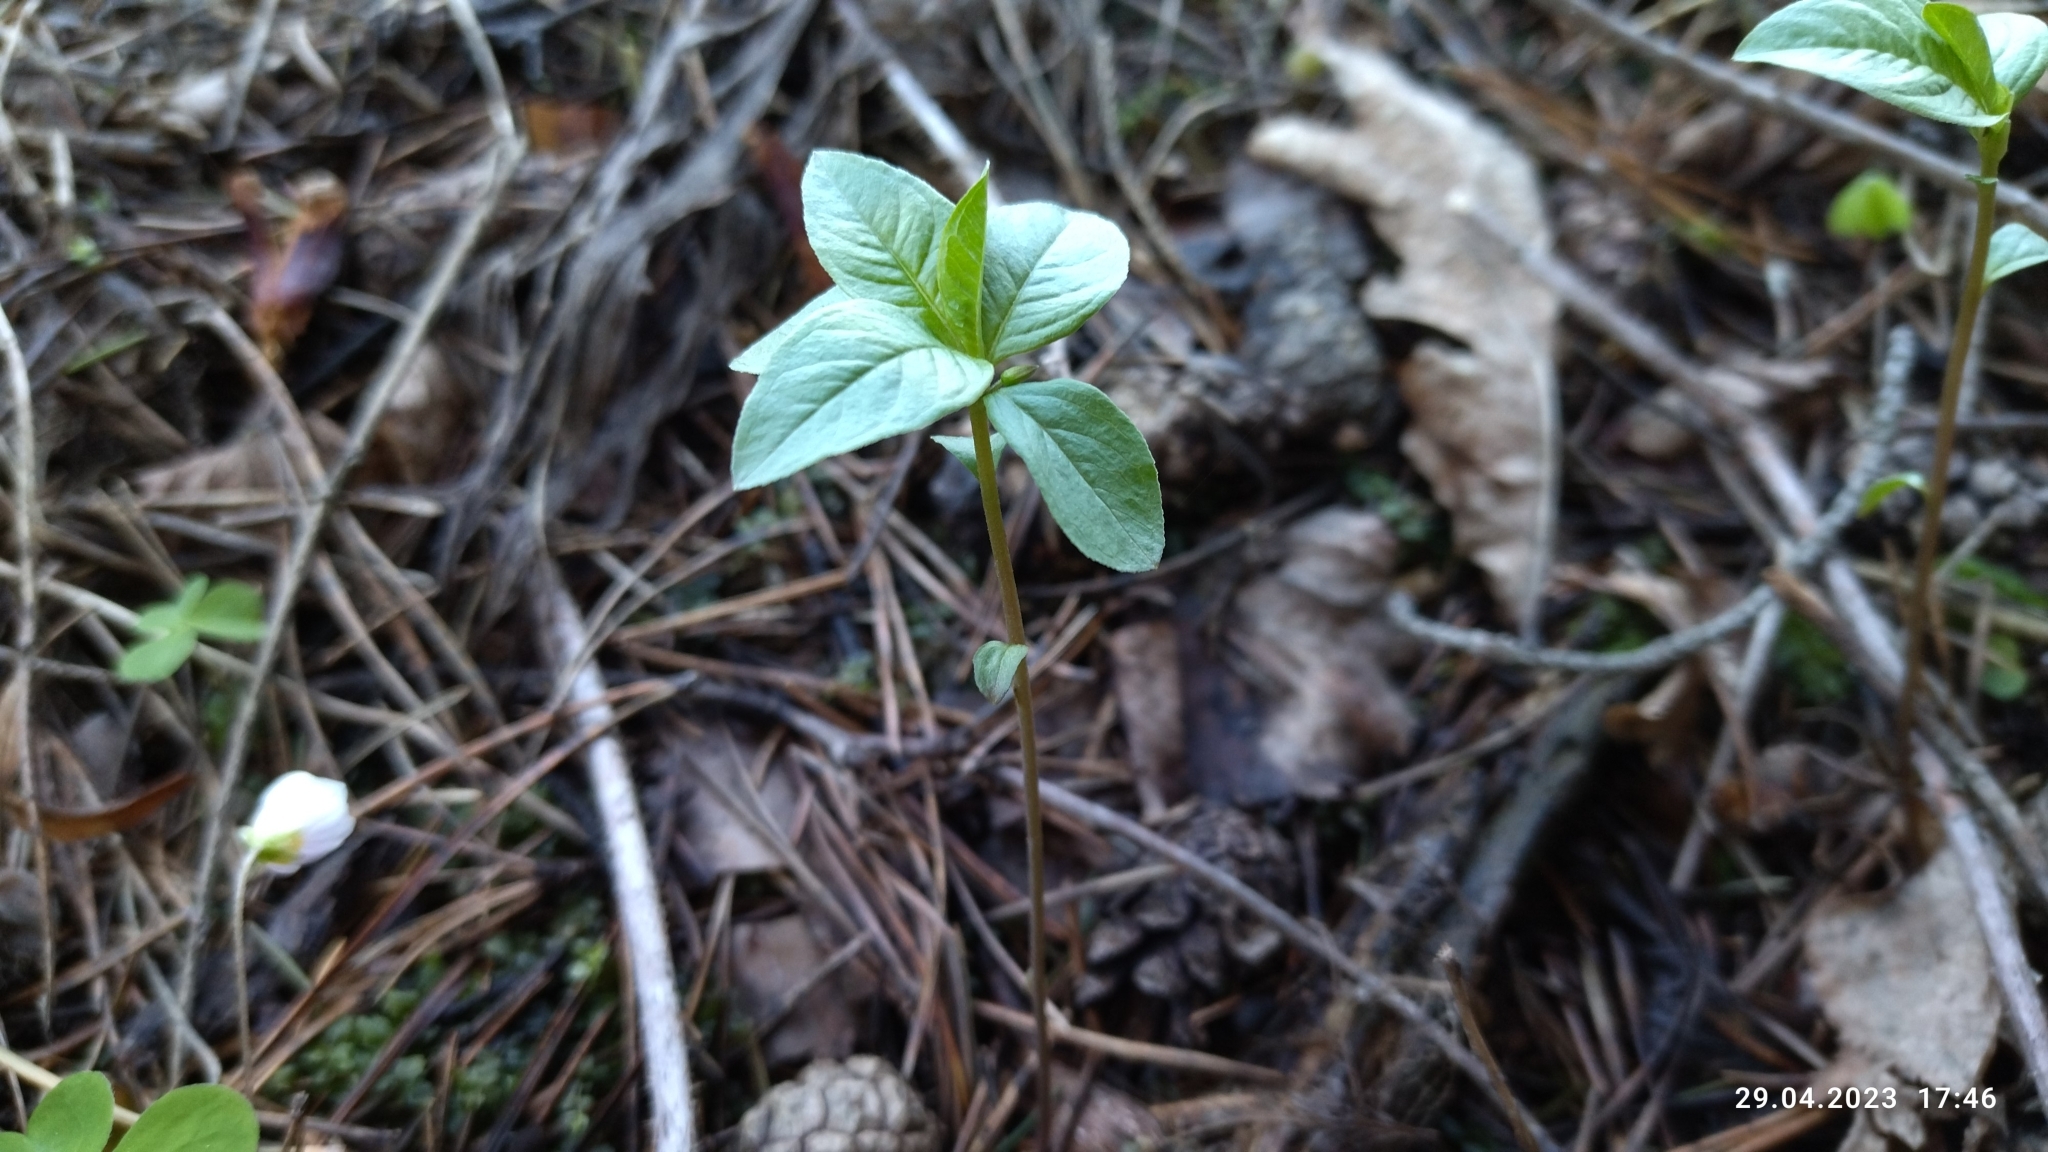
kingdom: Plantae
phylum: Tracheophyta
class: Magnoliopsida
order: Ericales
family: Primulaceae
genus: Lysimachia
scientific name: Lysimachia europaea
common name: Arctic starflower
